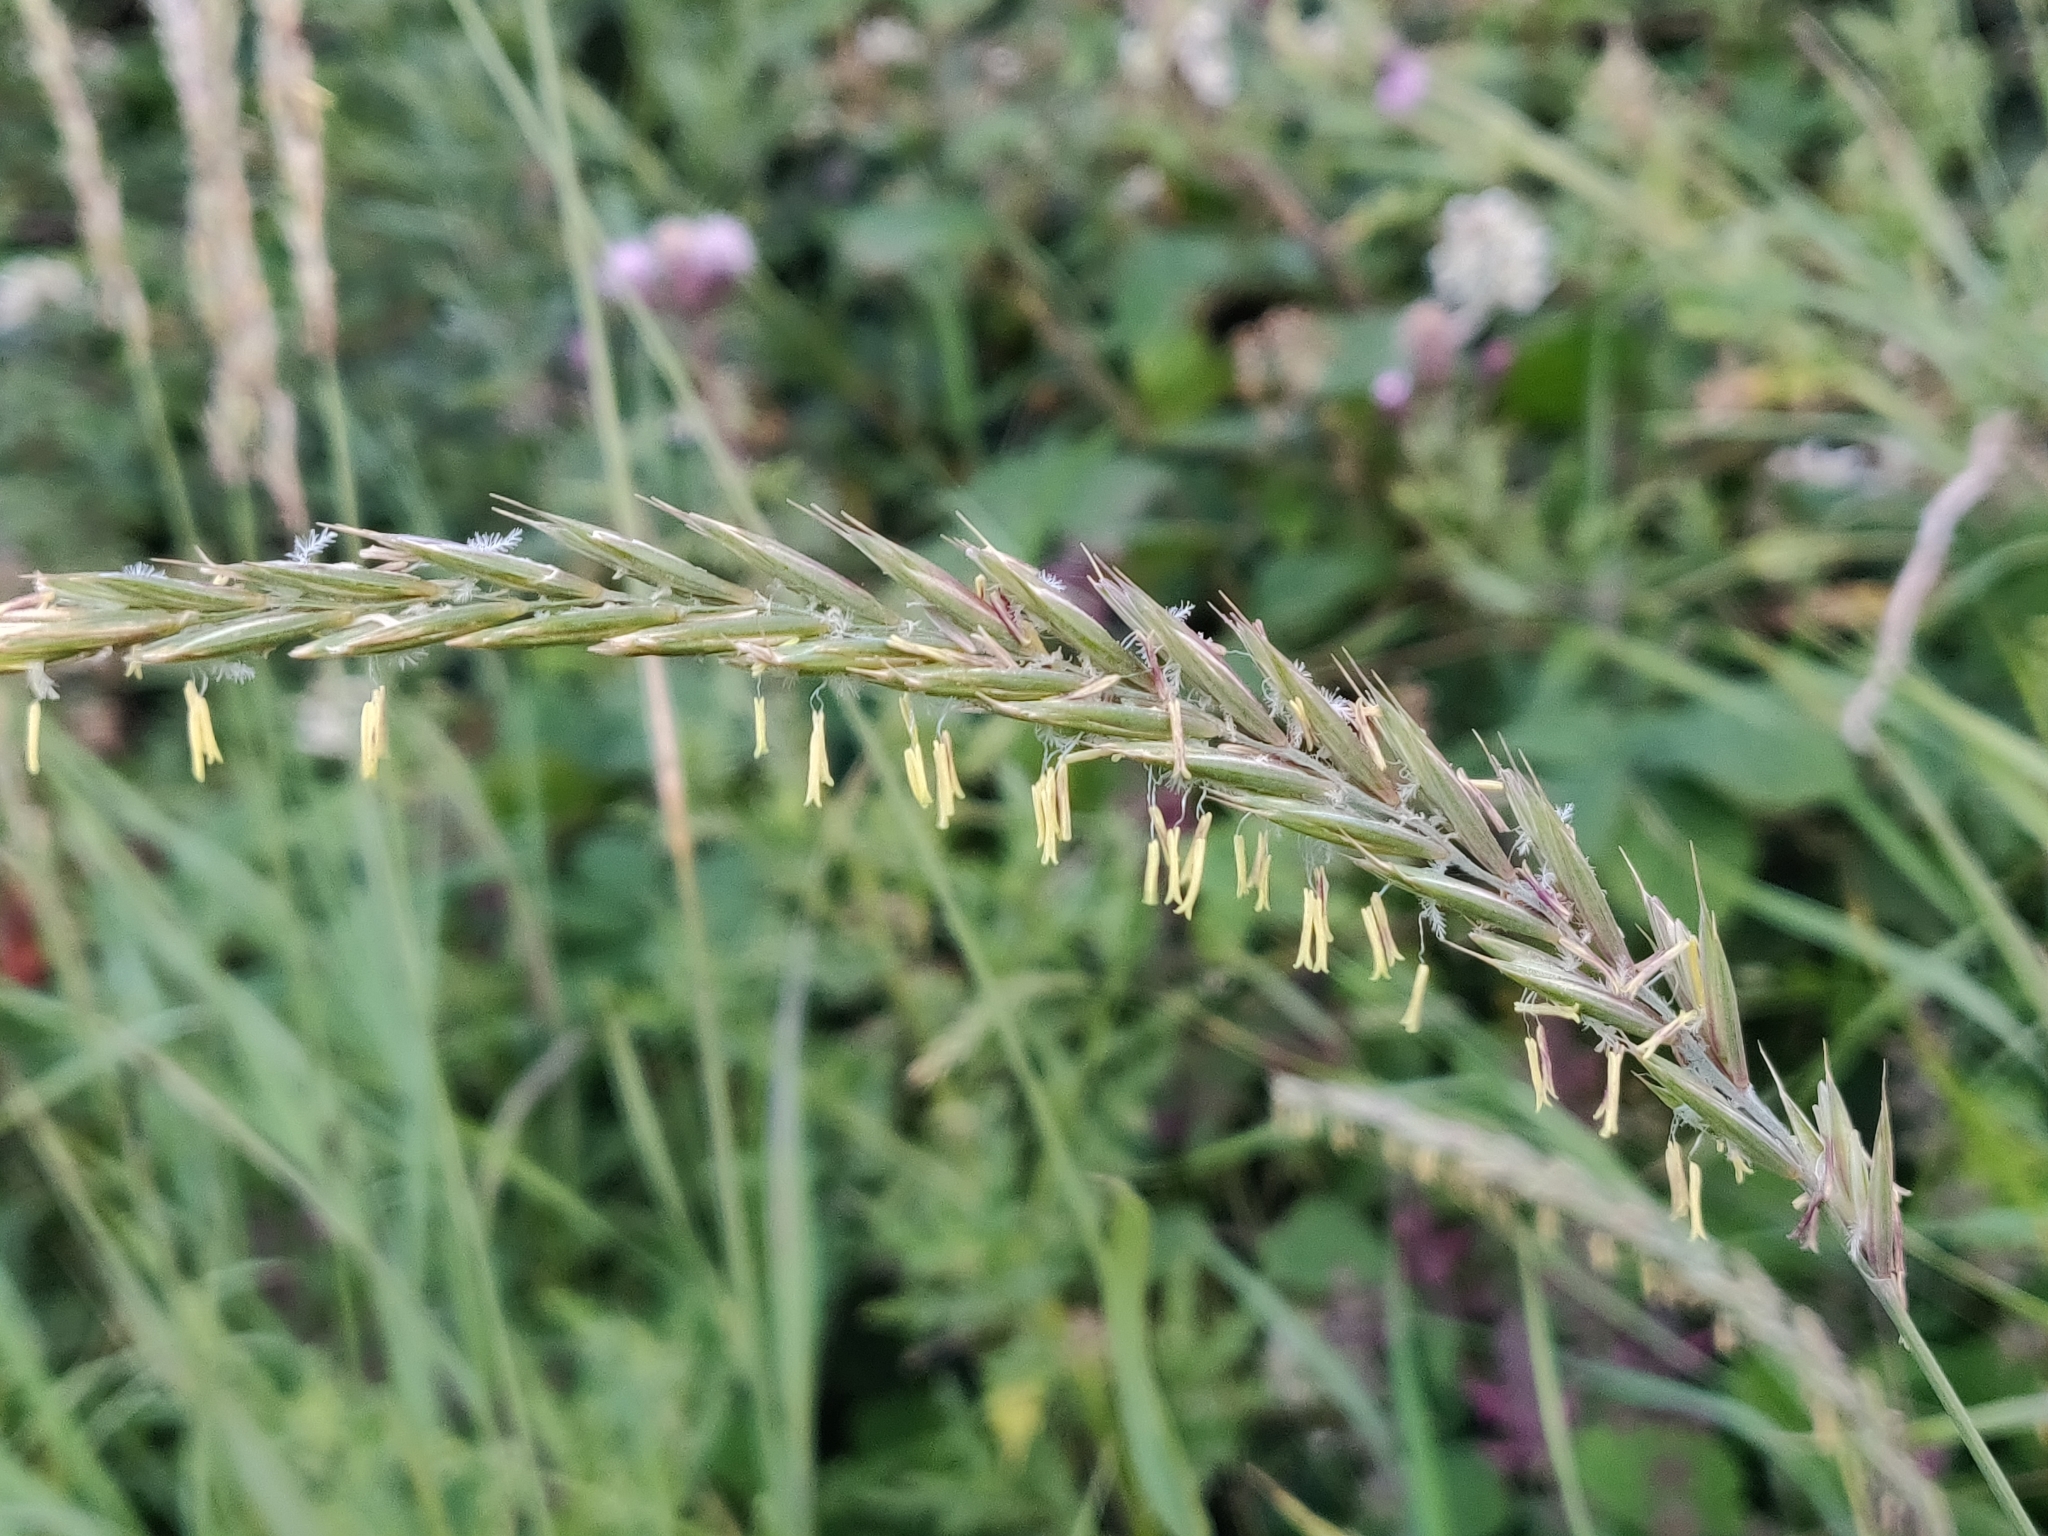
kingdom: Plantae
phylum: Tracheophyta
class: Liliopsida
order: Poales
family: Poaceae
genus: Elymus
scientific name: Elymus repens
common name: Quackgrass
